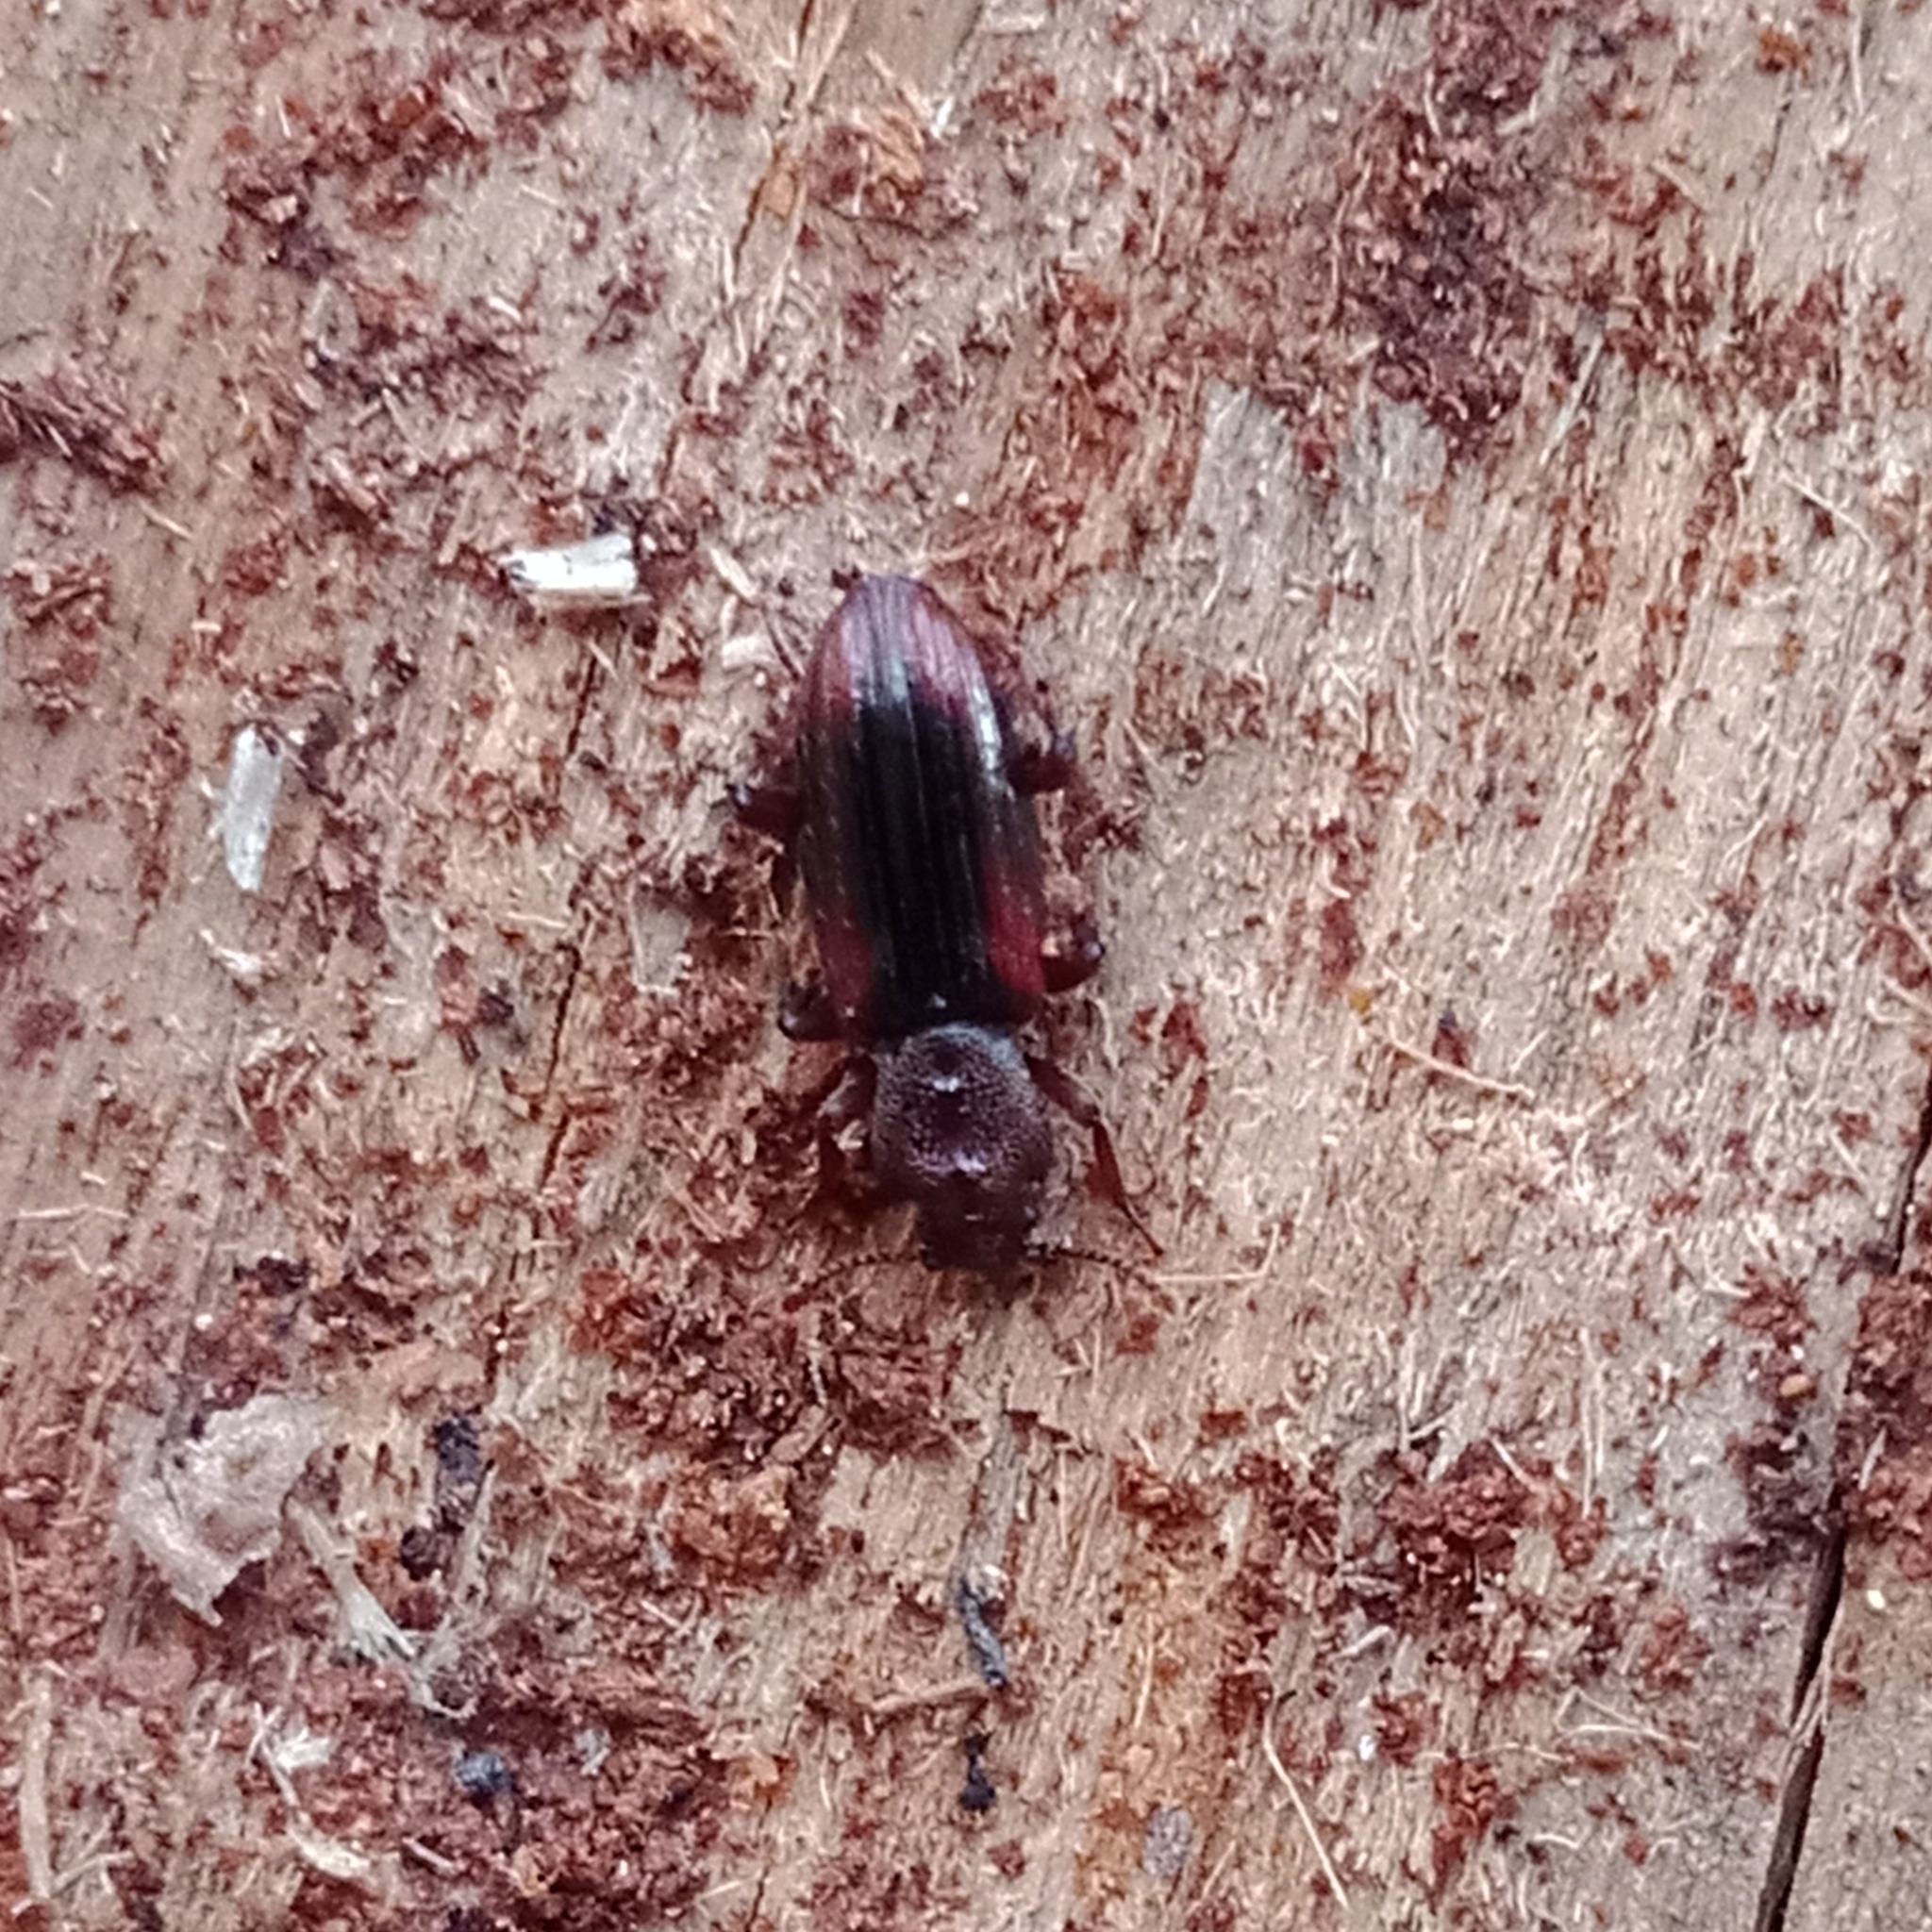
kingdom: Animalia
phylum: Arthropoda
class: Insecta
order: Coleoptera
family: Bothrideridae
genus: Bothrideres
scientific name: Bothrideres bipunctatus
